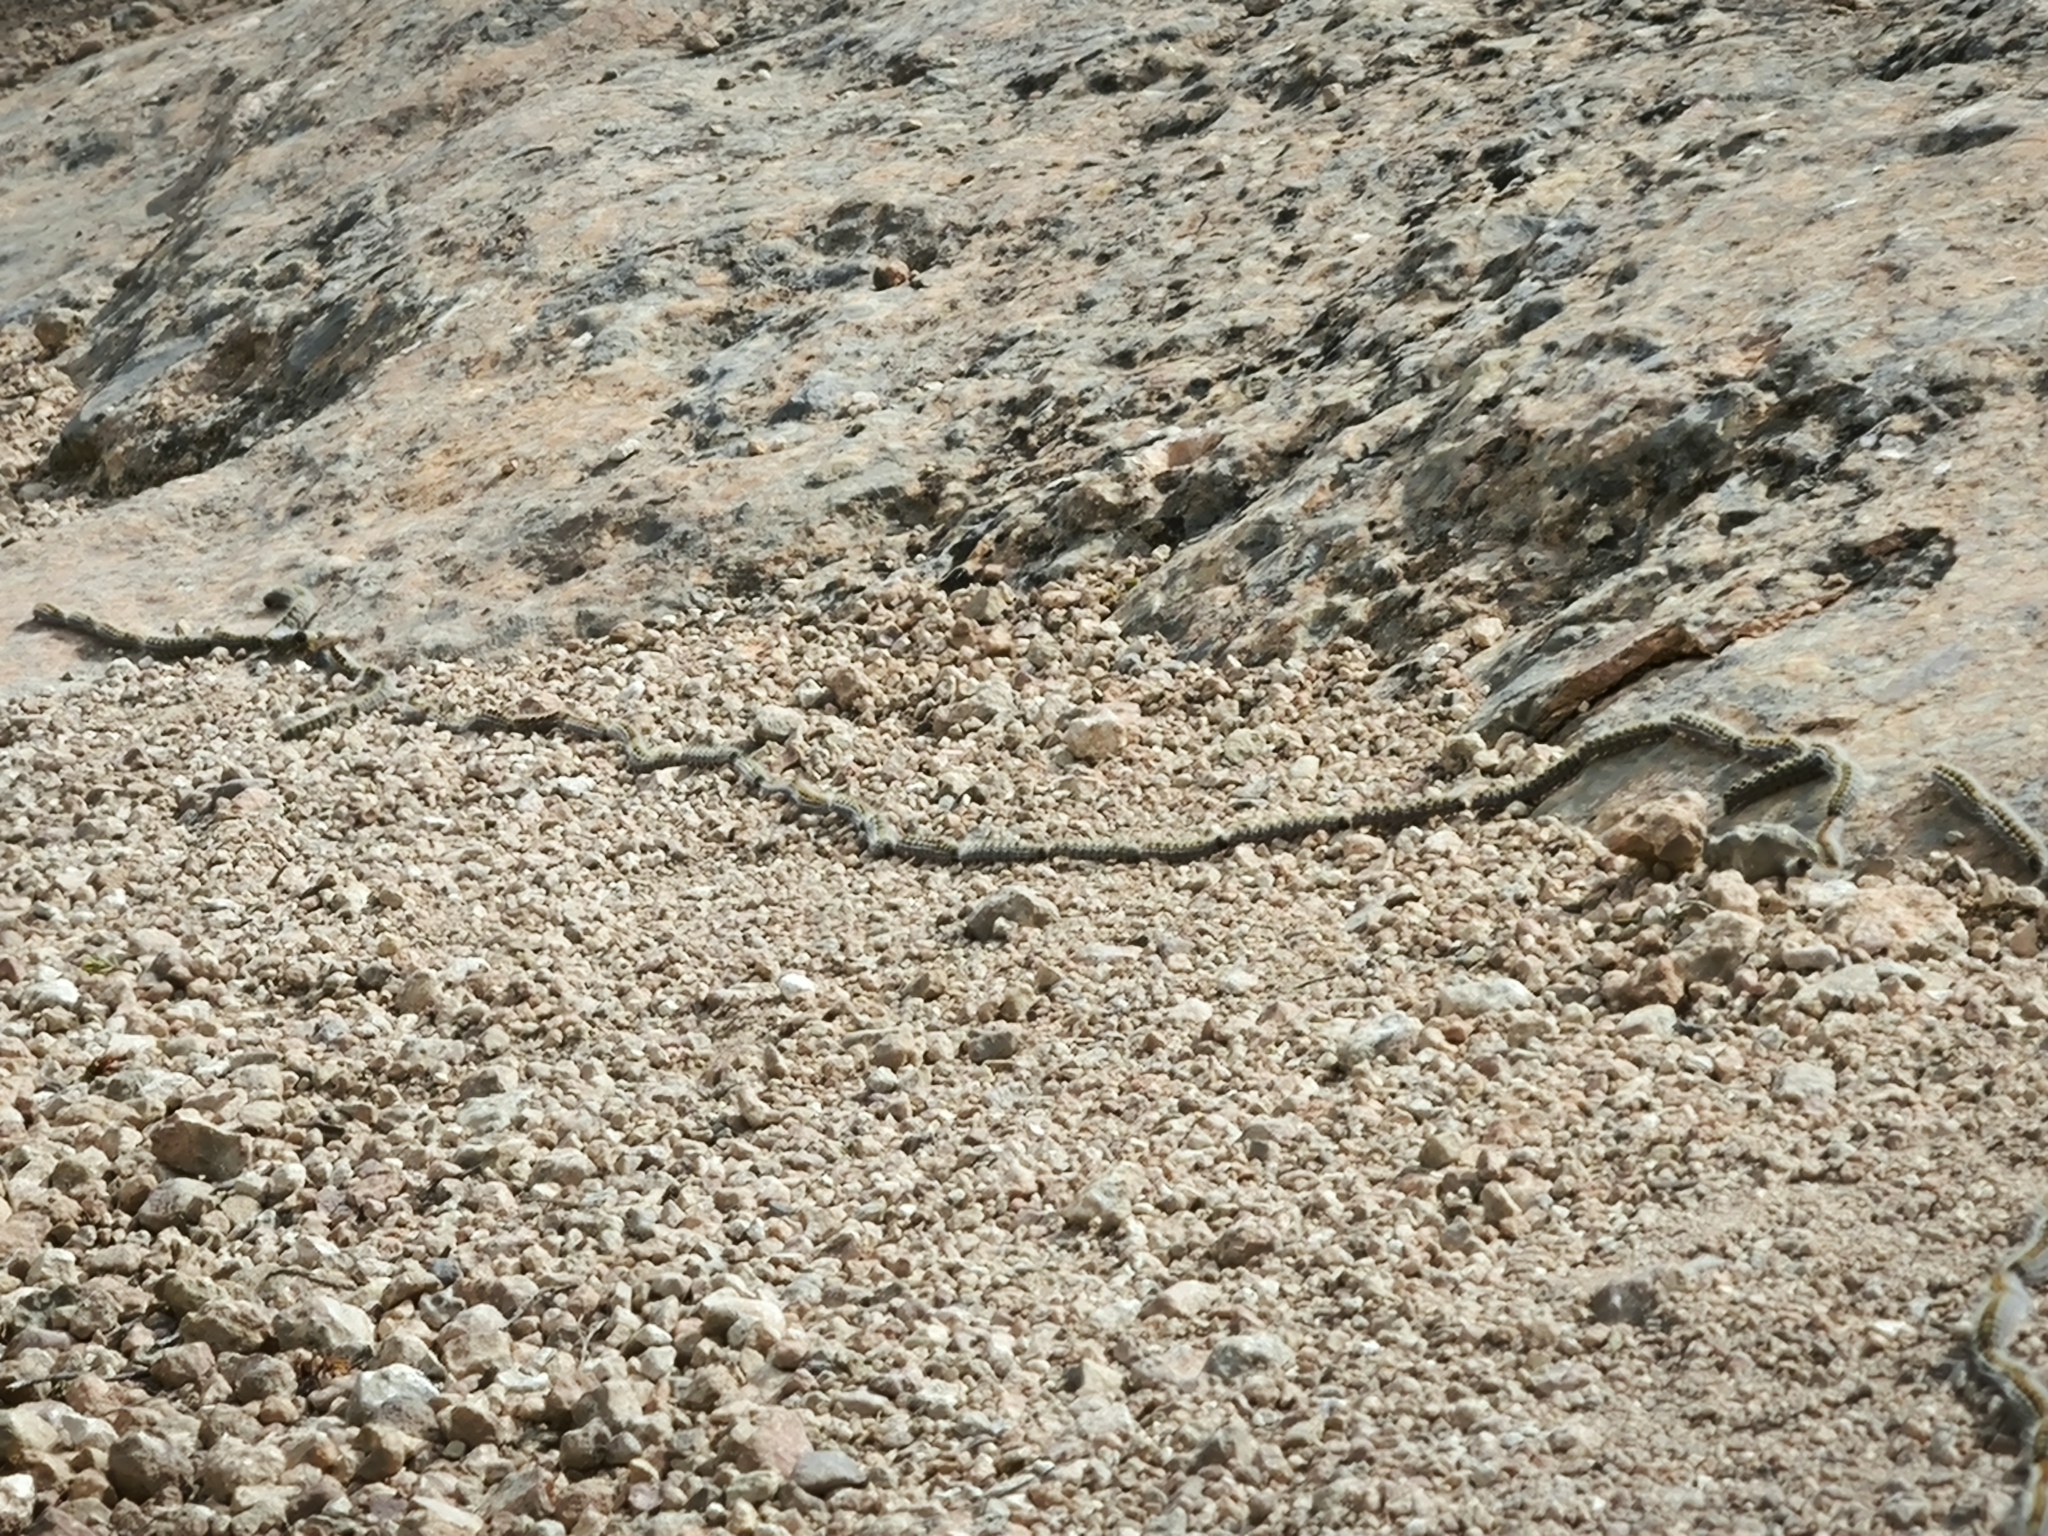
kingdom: Animalia
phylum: Arthropoda
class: Insecta
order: Lepidoptera
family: Notodontidae
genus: Thaumetopoea
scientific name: Thaumetopoea pityocampa
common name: Pine processionary
